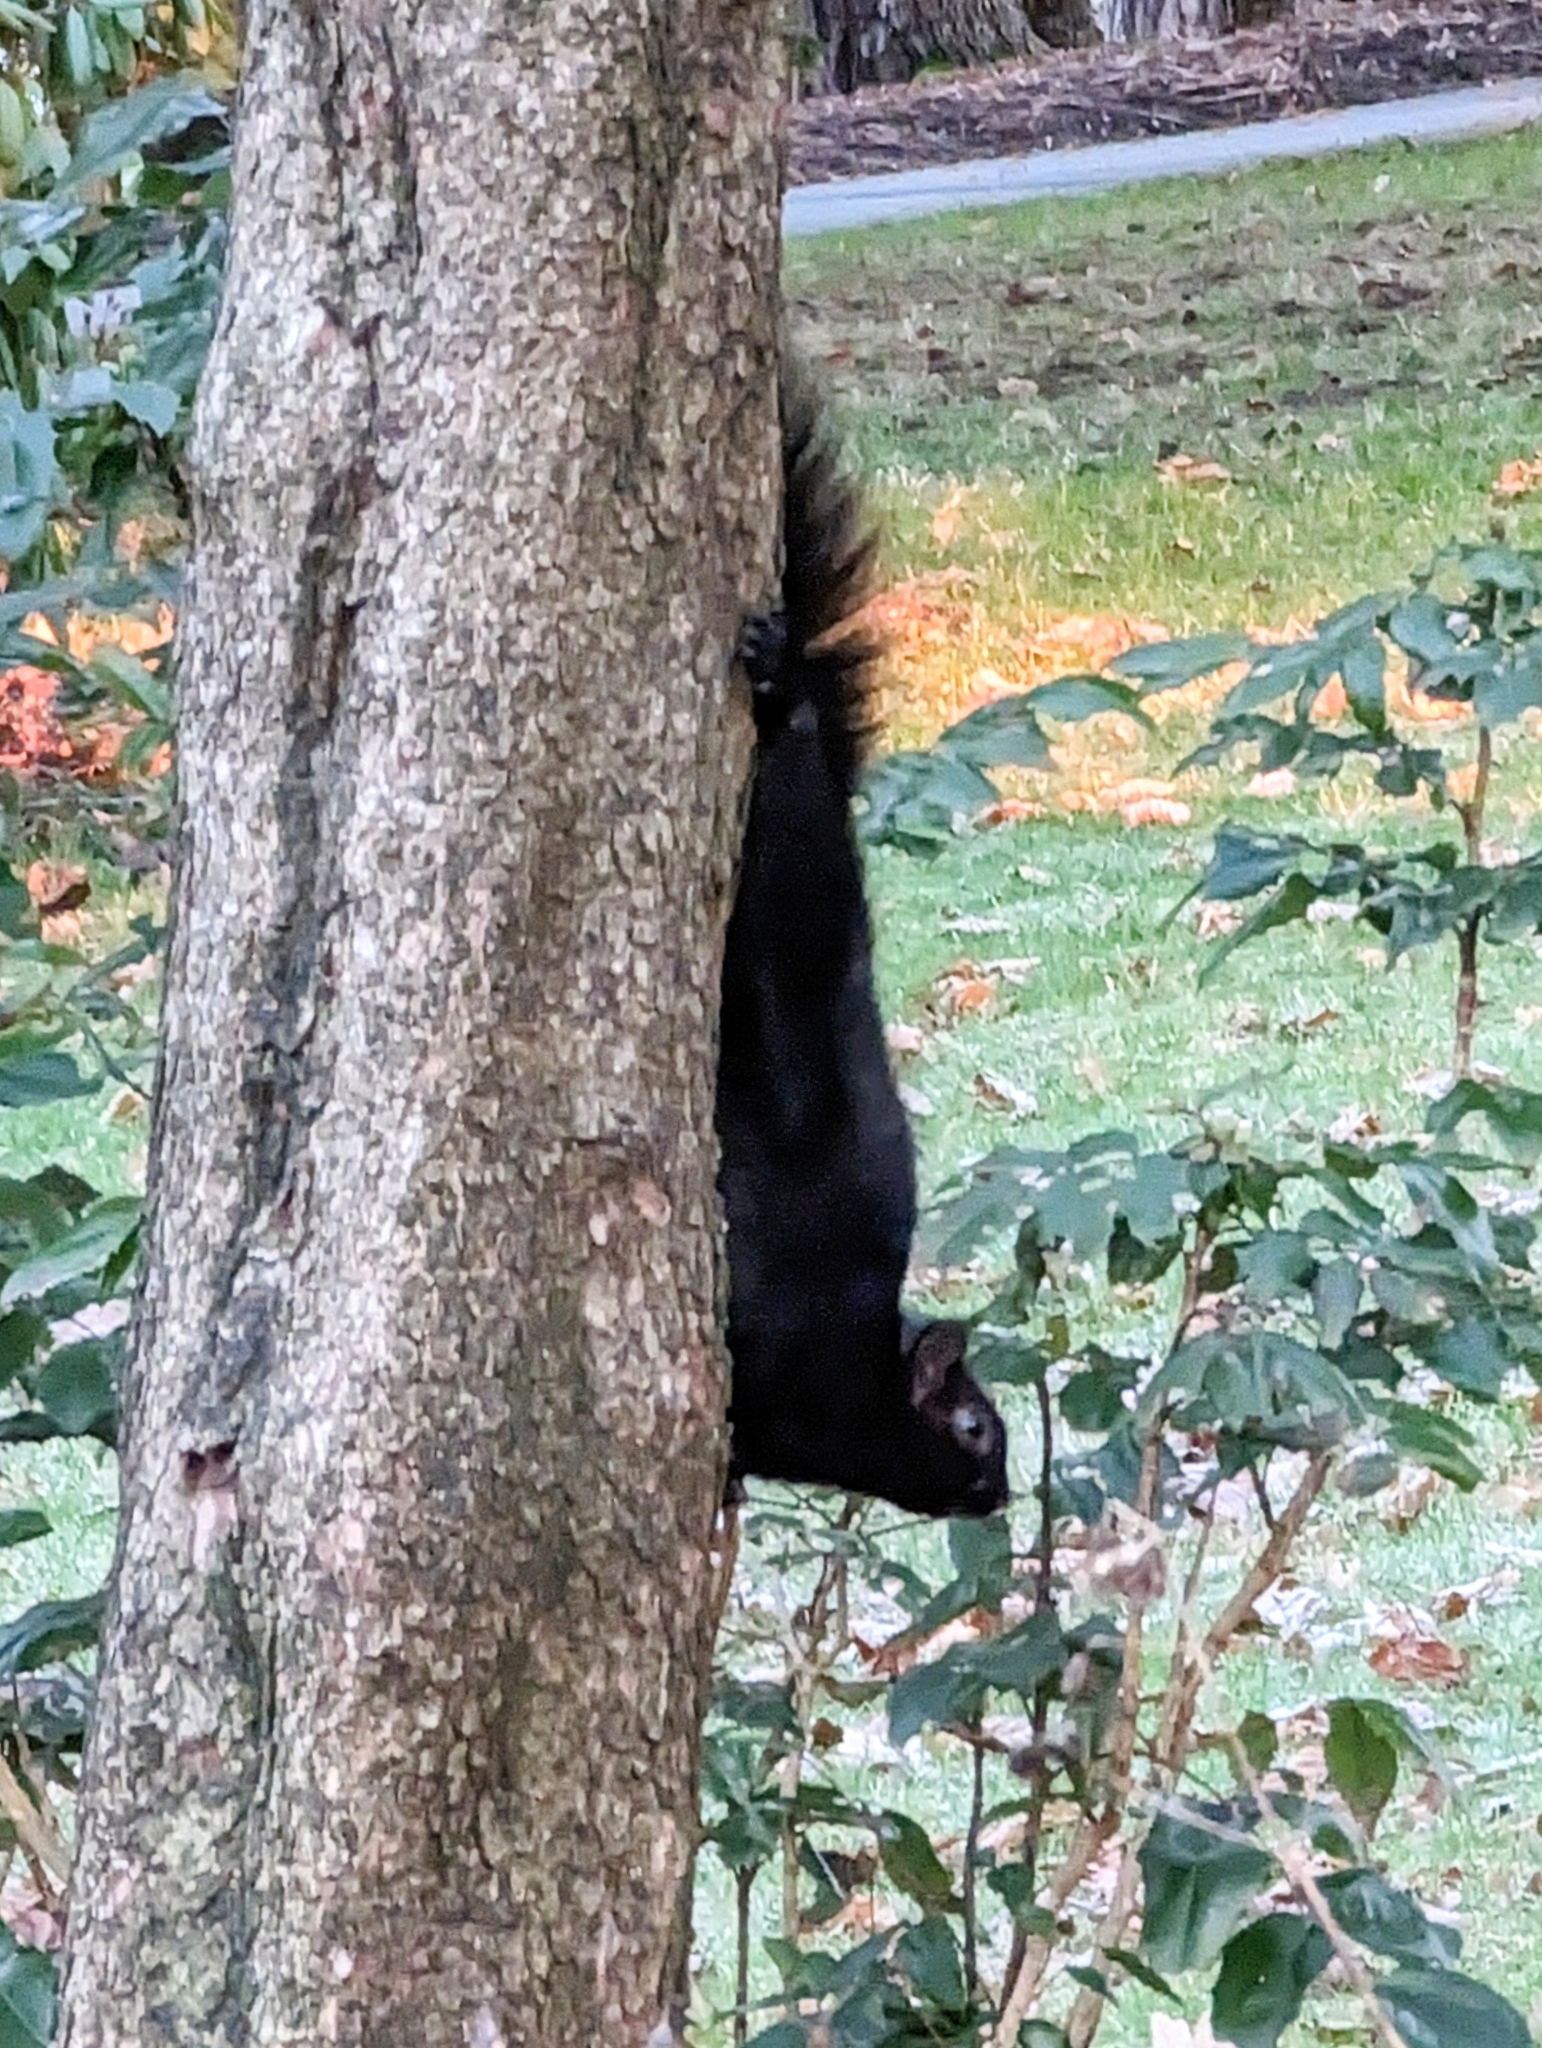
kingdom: Animalia
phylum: Chordata
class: Mammalia
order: Rodentia
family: Sciuridae
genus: Sciurus
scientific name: Sciurus carolinensis
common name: Eastern gray squirrel
